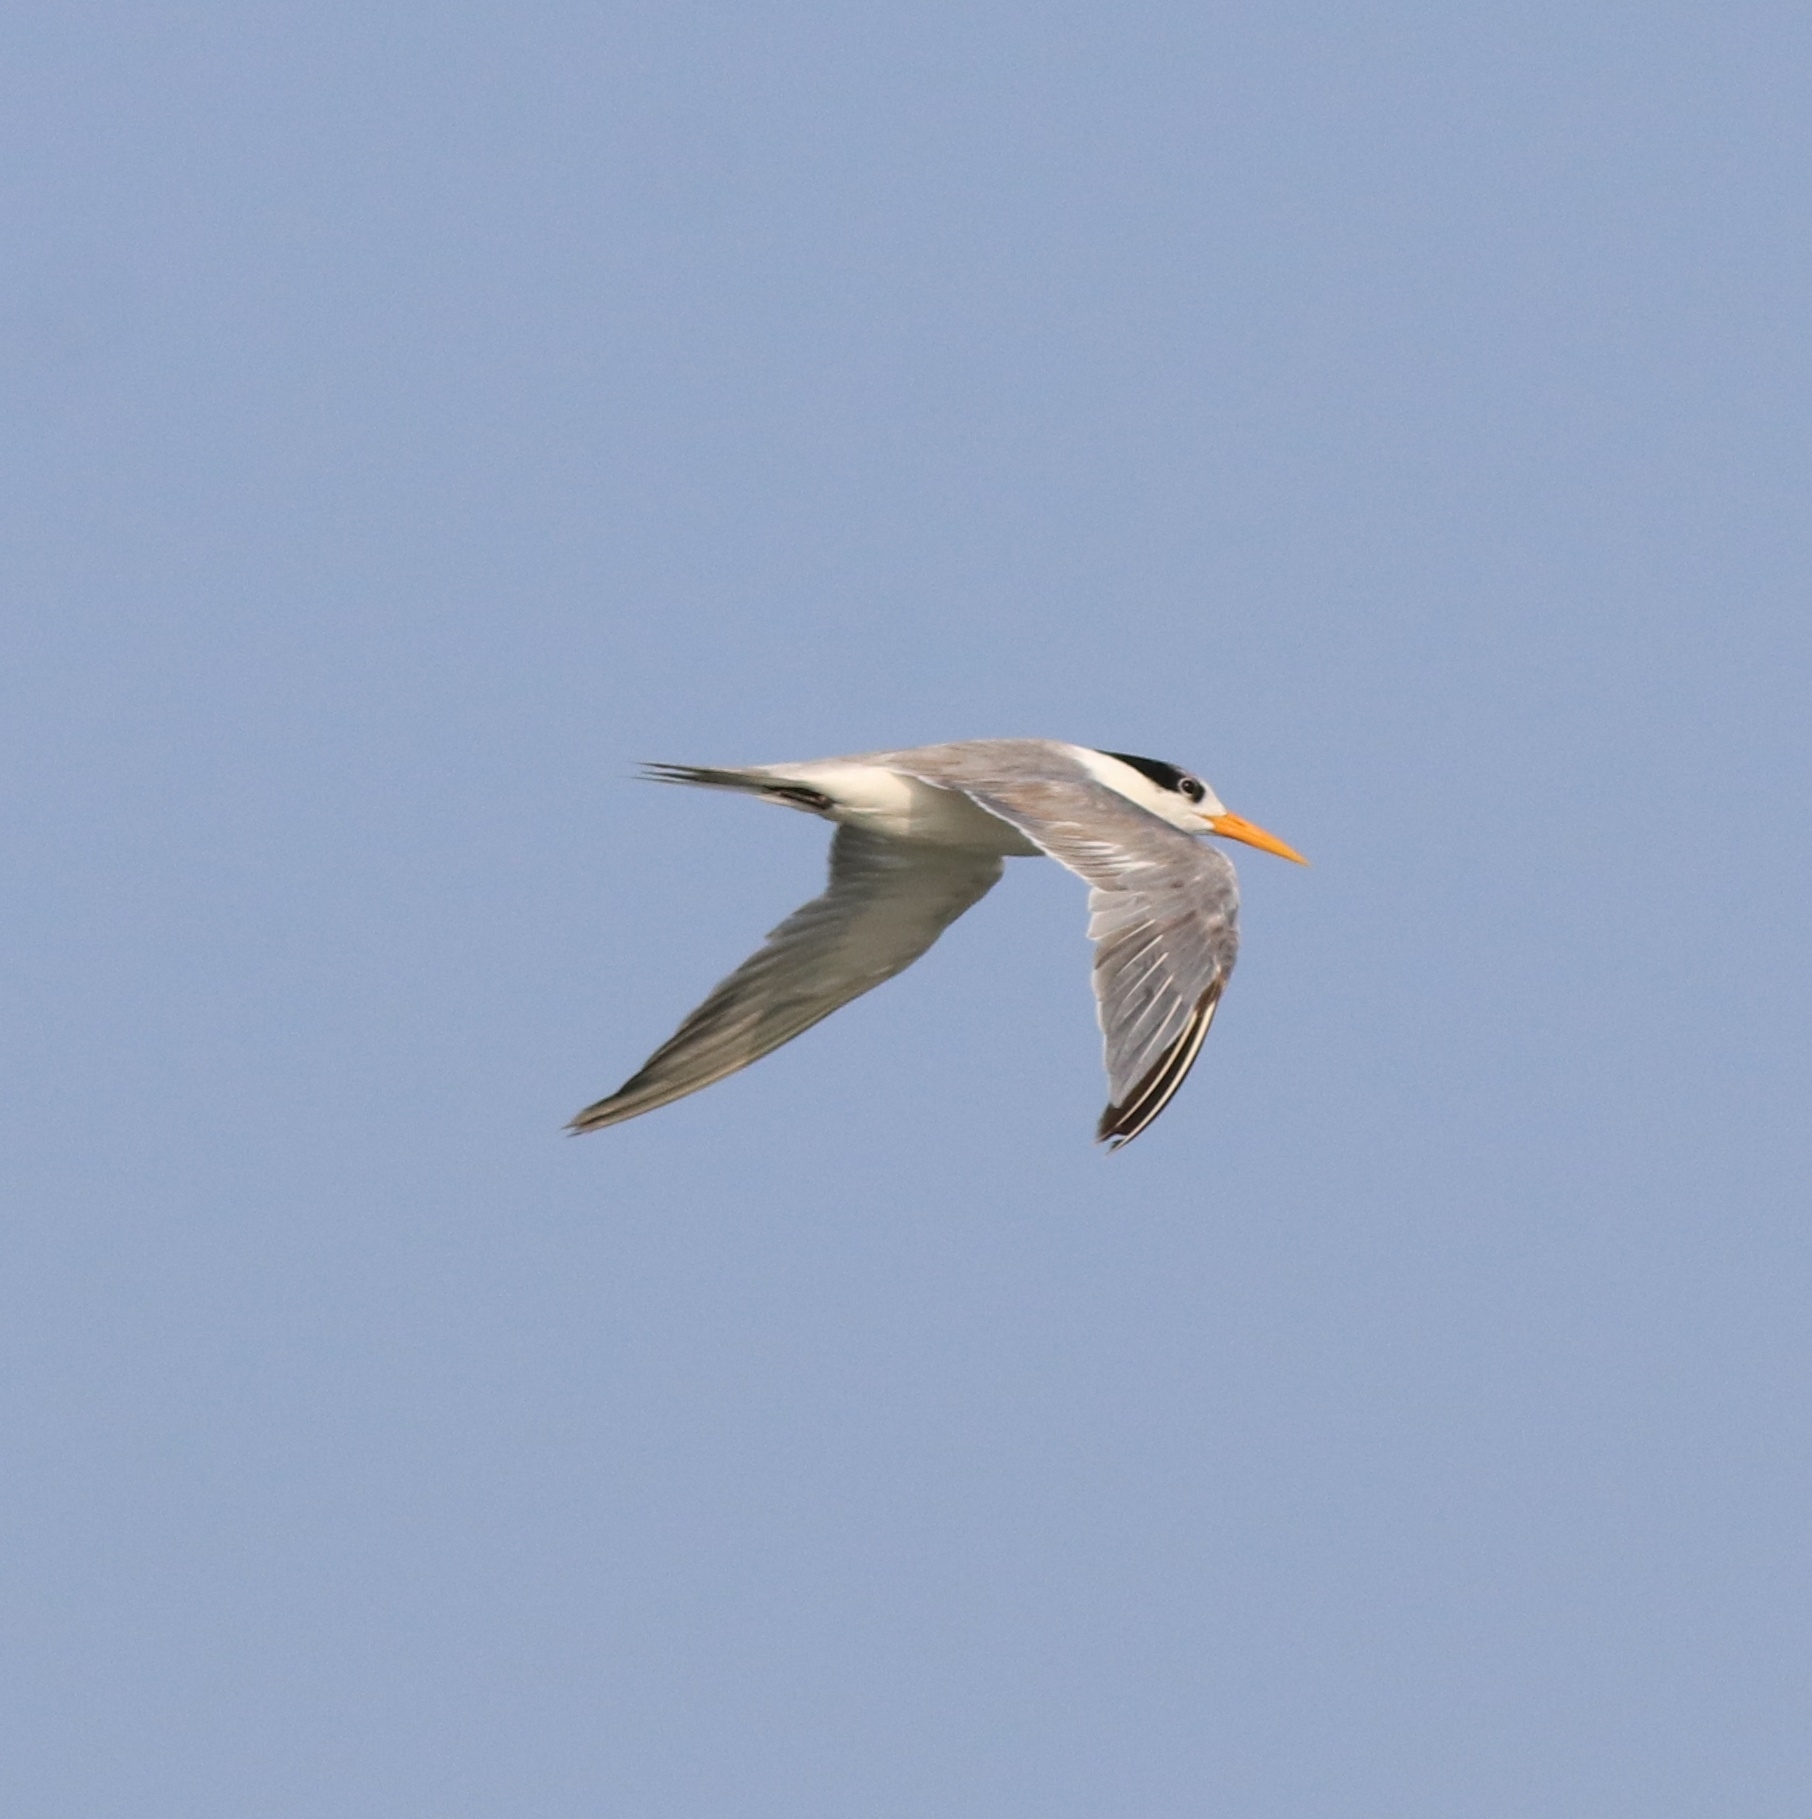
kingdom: Animalia
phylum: Chordata
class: Aves
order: Charadriiformes
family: Laridae
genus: Thalasseus
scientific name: Thalasseus bengalensis
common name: Lesser crested tern
